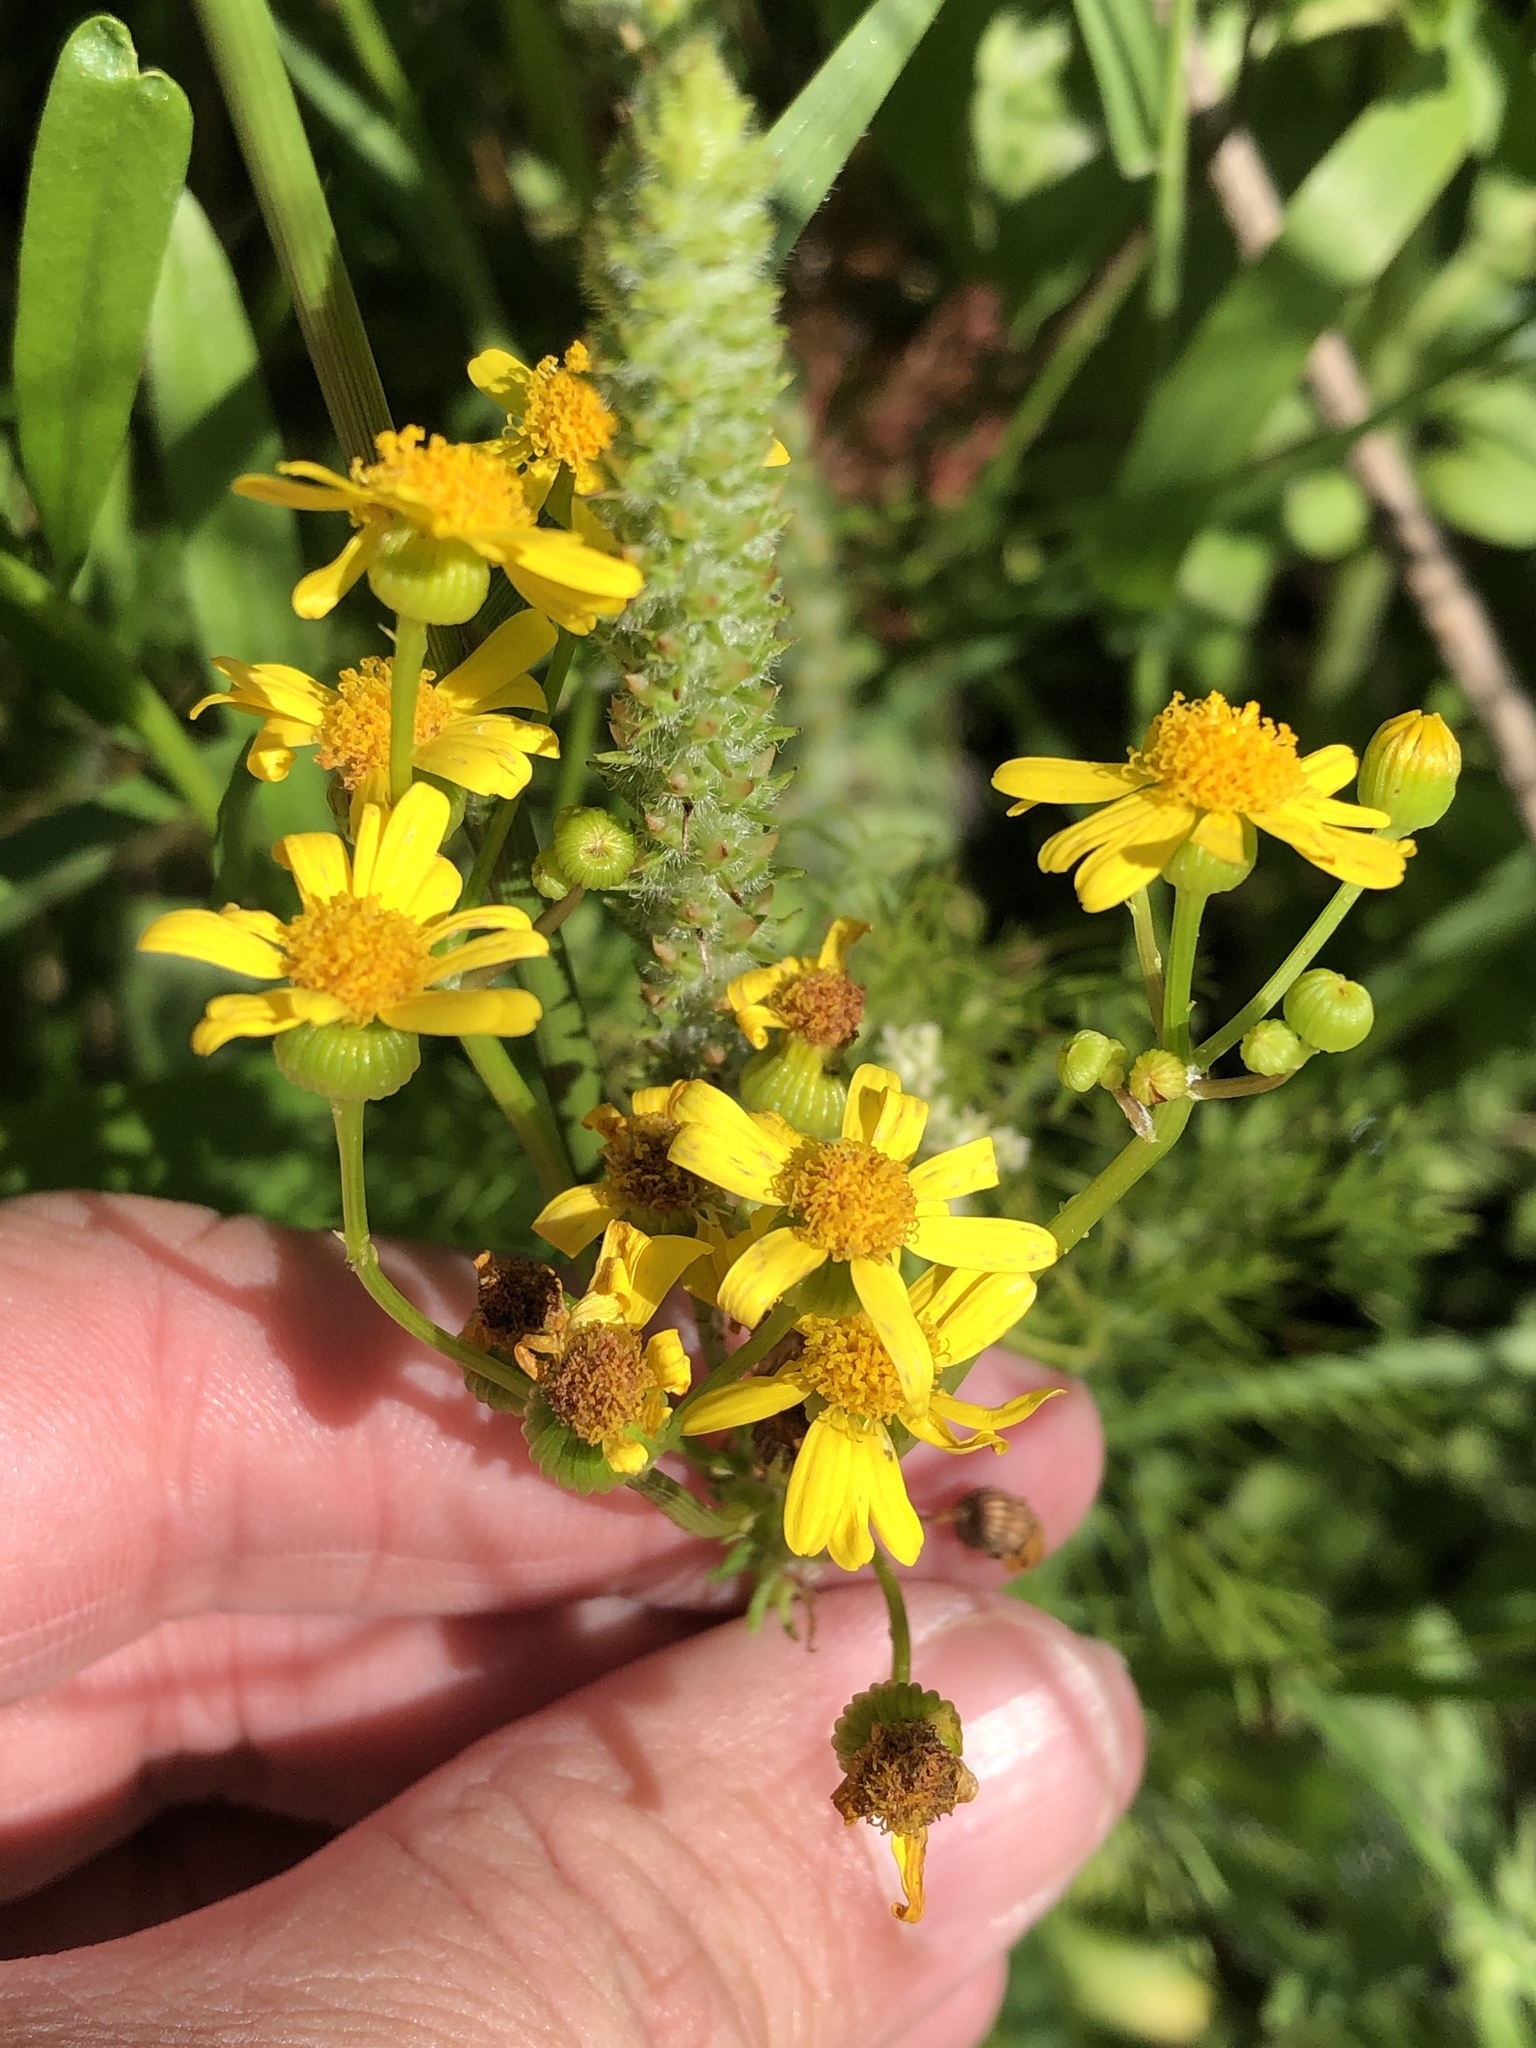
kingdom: Plantae
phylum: Tracheophyta
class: Magnoliopsida
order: Asterales
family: Asteraceae
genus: Packera
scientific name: Packera tampicana
